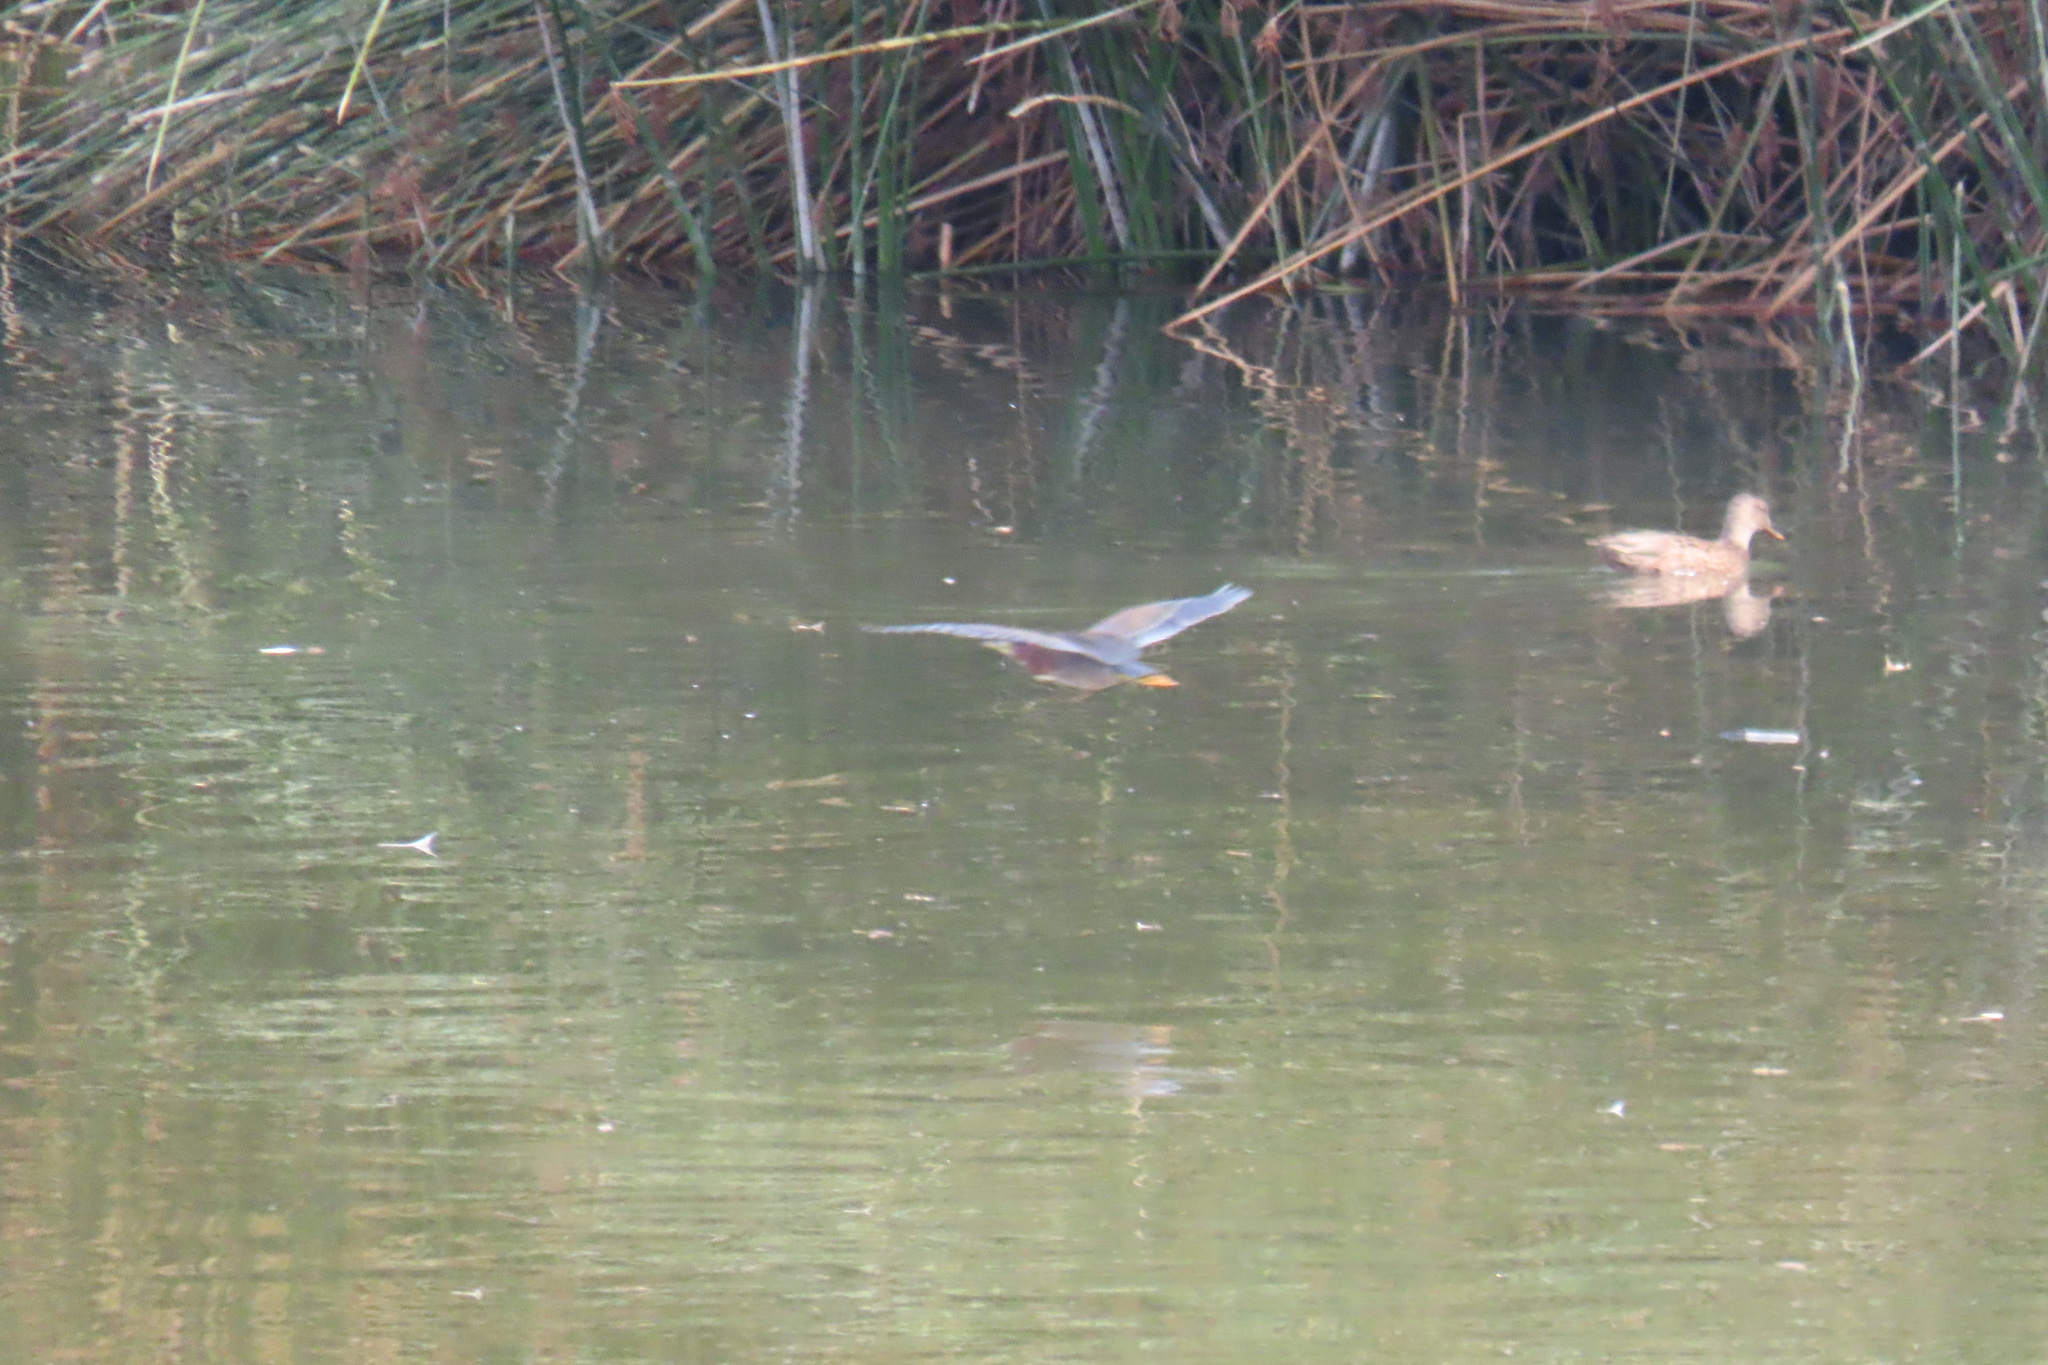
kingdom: Animalia
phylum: Chordata
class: Aves
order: Pelecaniformes
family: Ardeidae
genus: Butorides
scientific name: Butorides virescens
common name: Green heron
